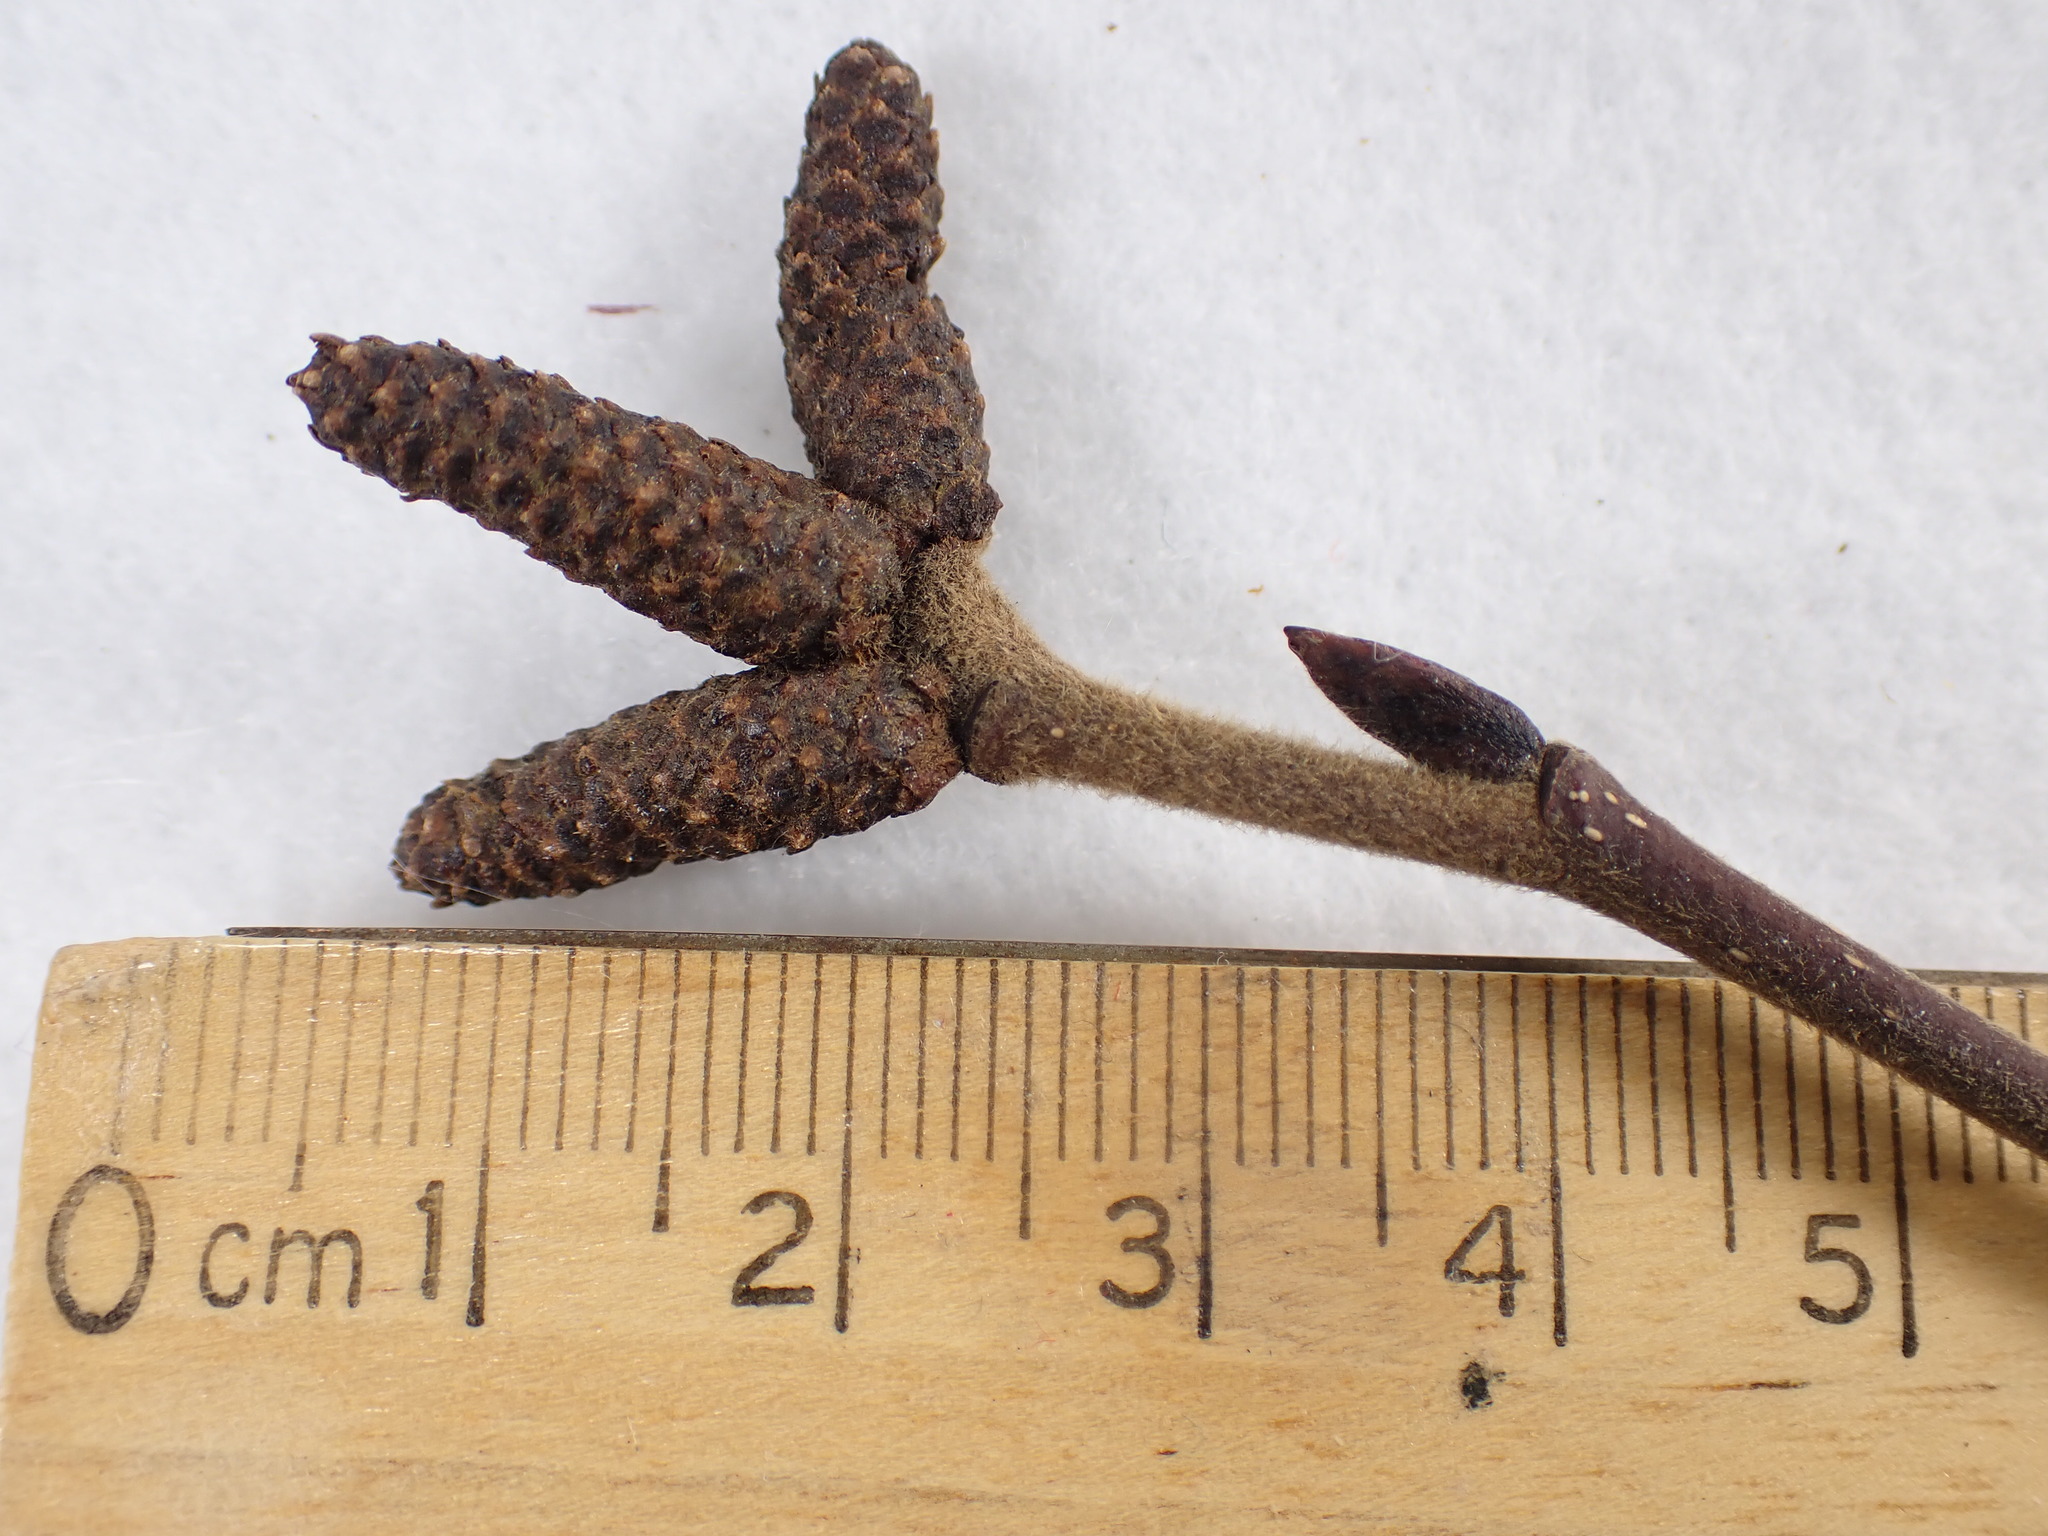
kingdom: Plantae
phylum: Tracheophyta
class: Magnoliopsida
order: Fagales
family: Betulaceae
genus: Alnus
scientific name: Alnus alnobetula
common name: Green alder
